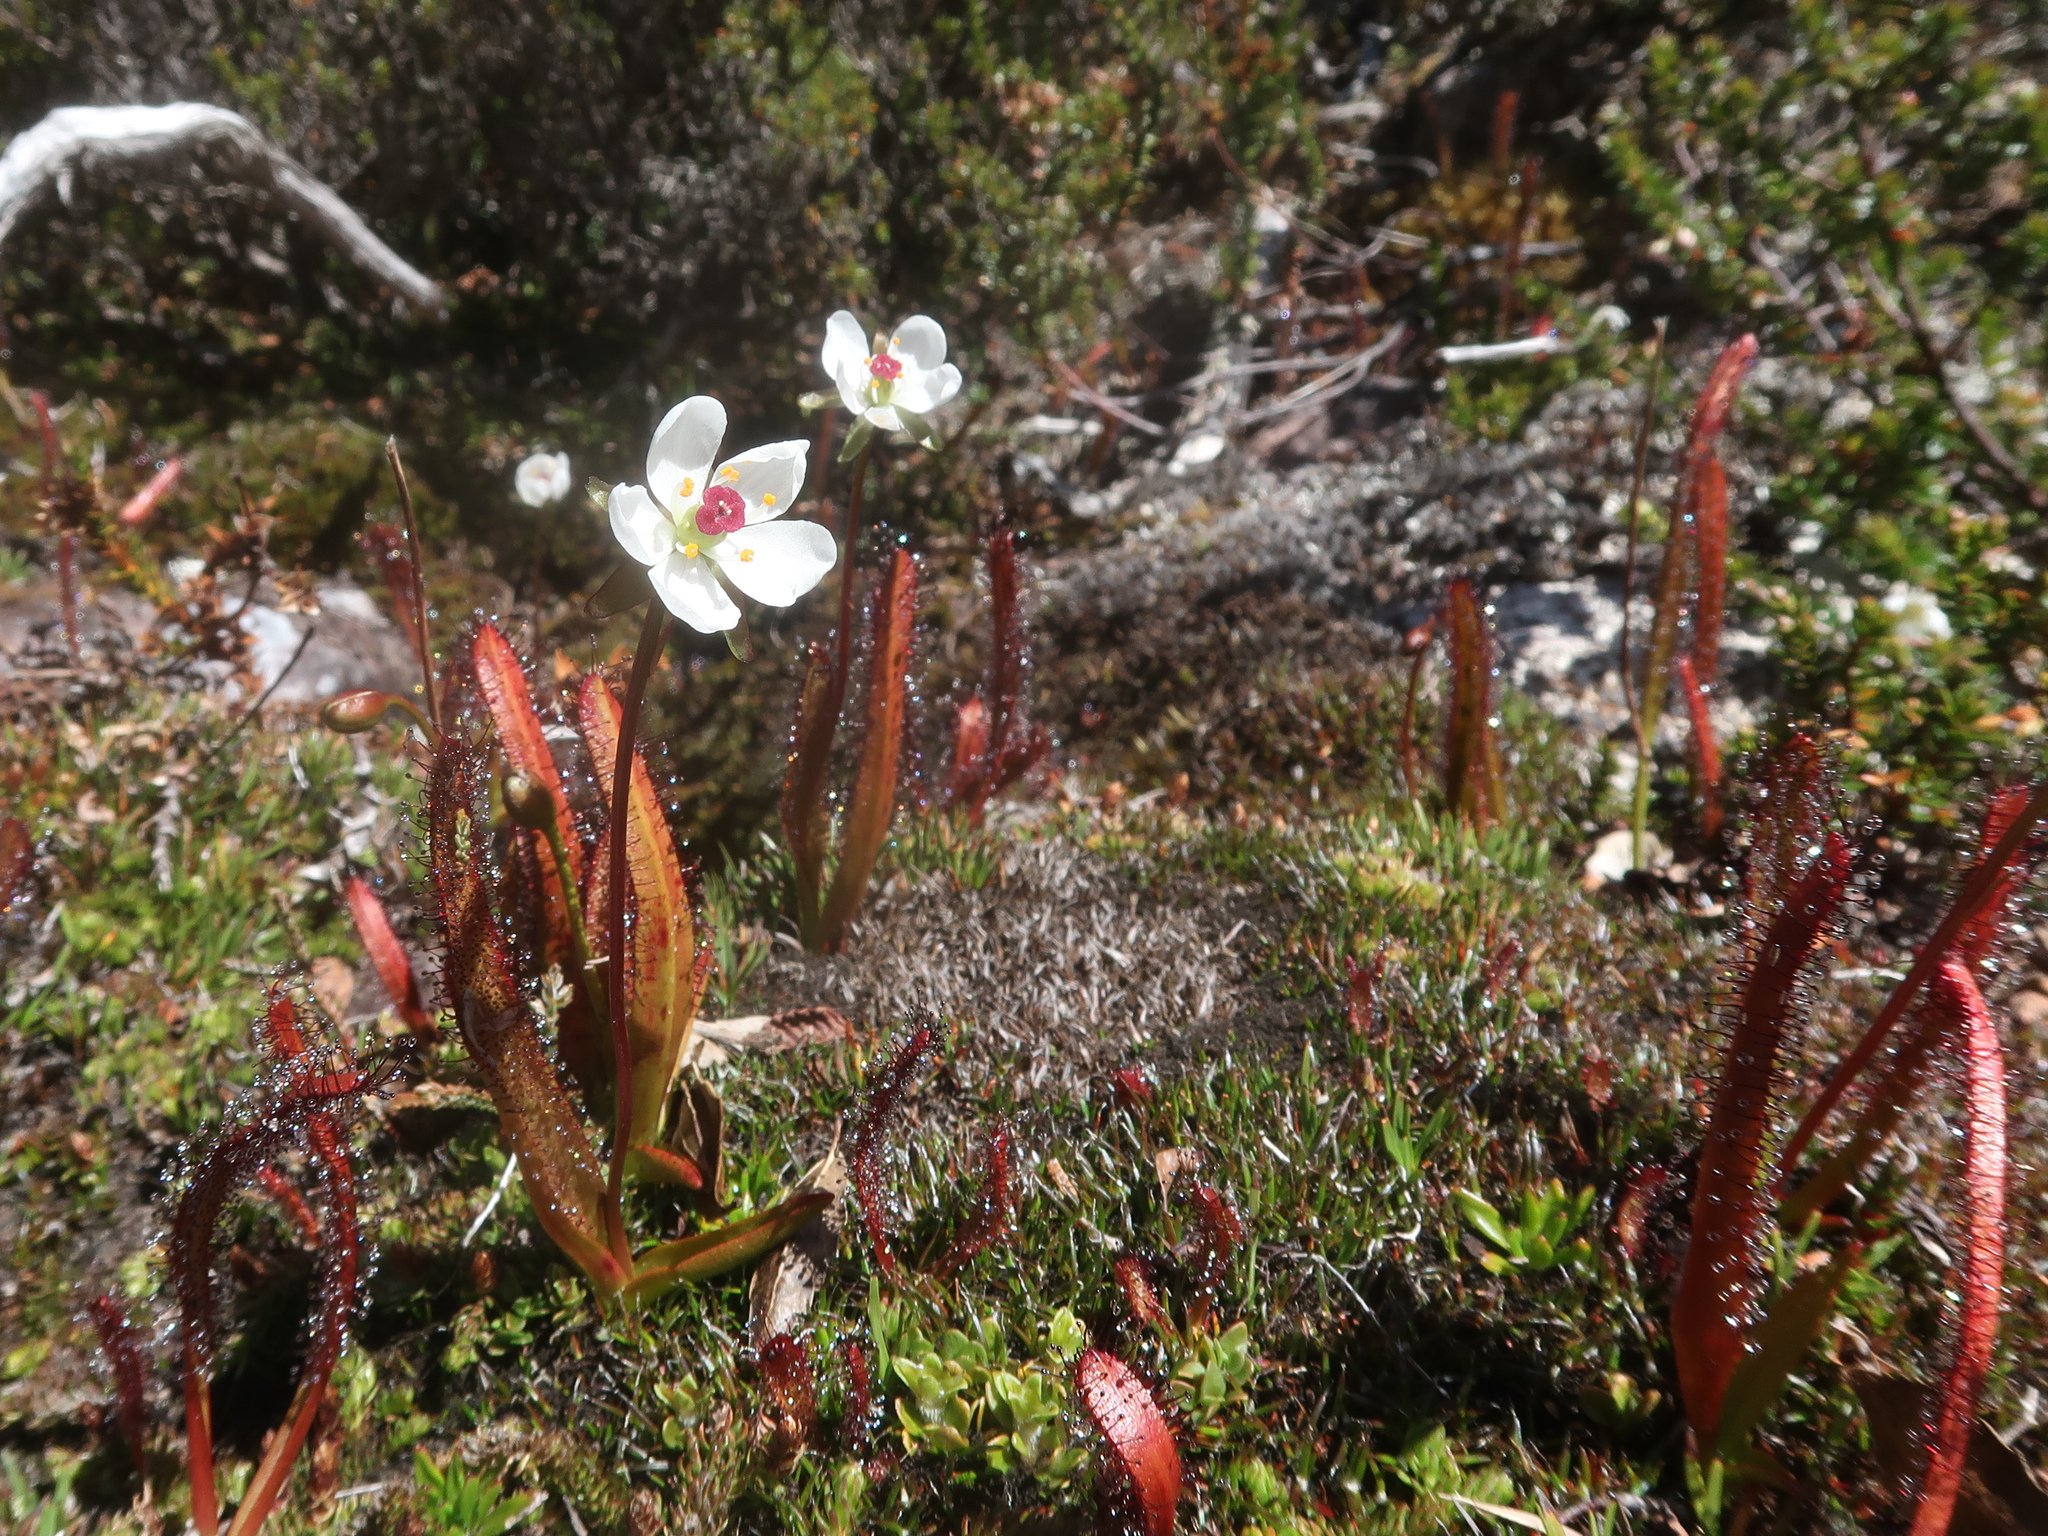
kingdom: Plantae
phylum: Tracheophyta
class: Magnoliopsida
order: Caryophyllales
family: Droseraceae
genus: Drosera
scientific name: Drosera murfetii
